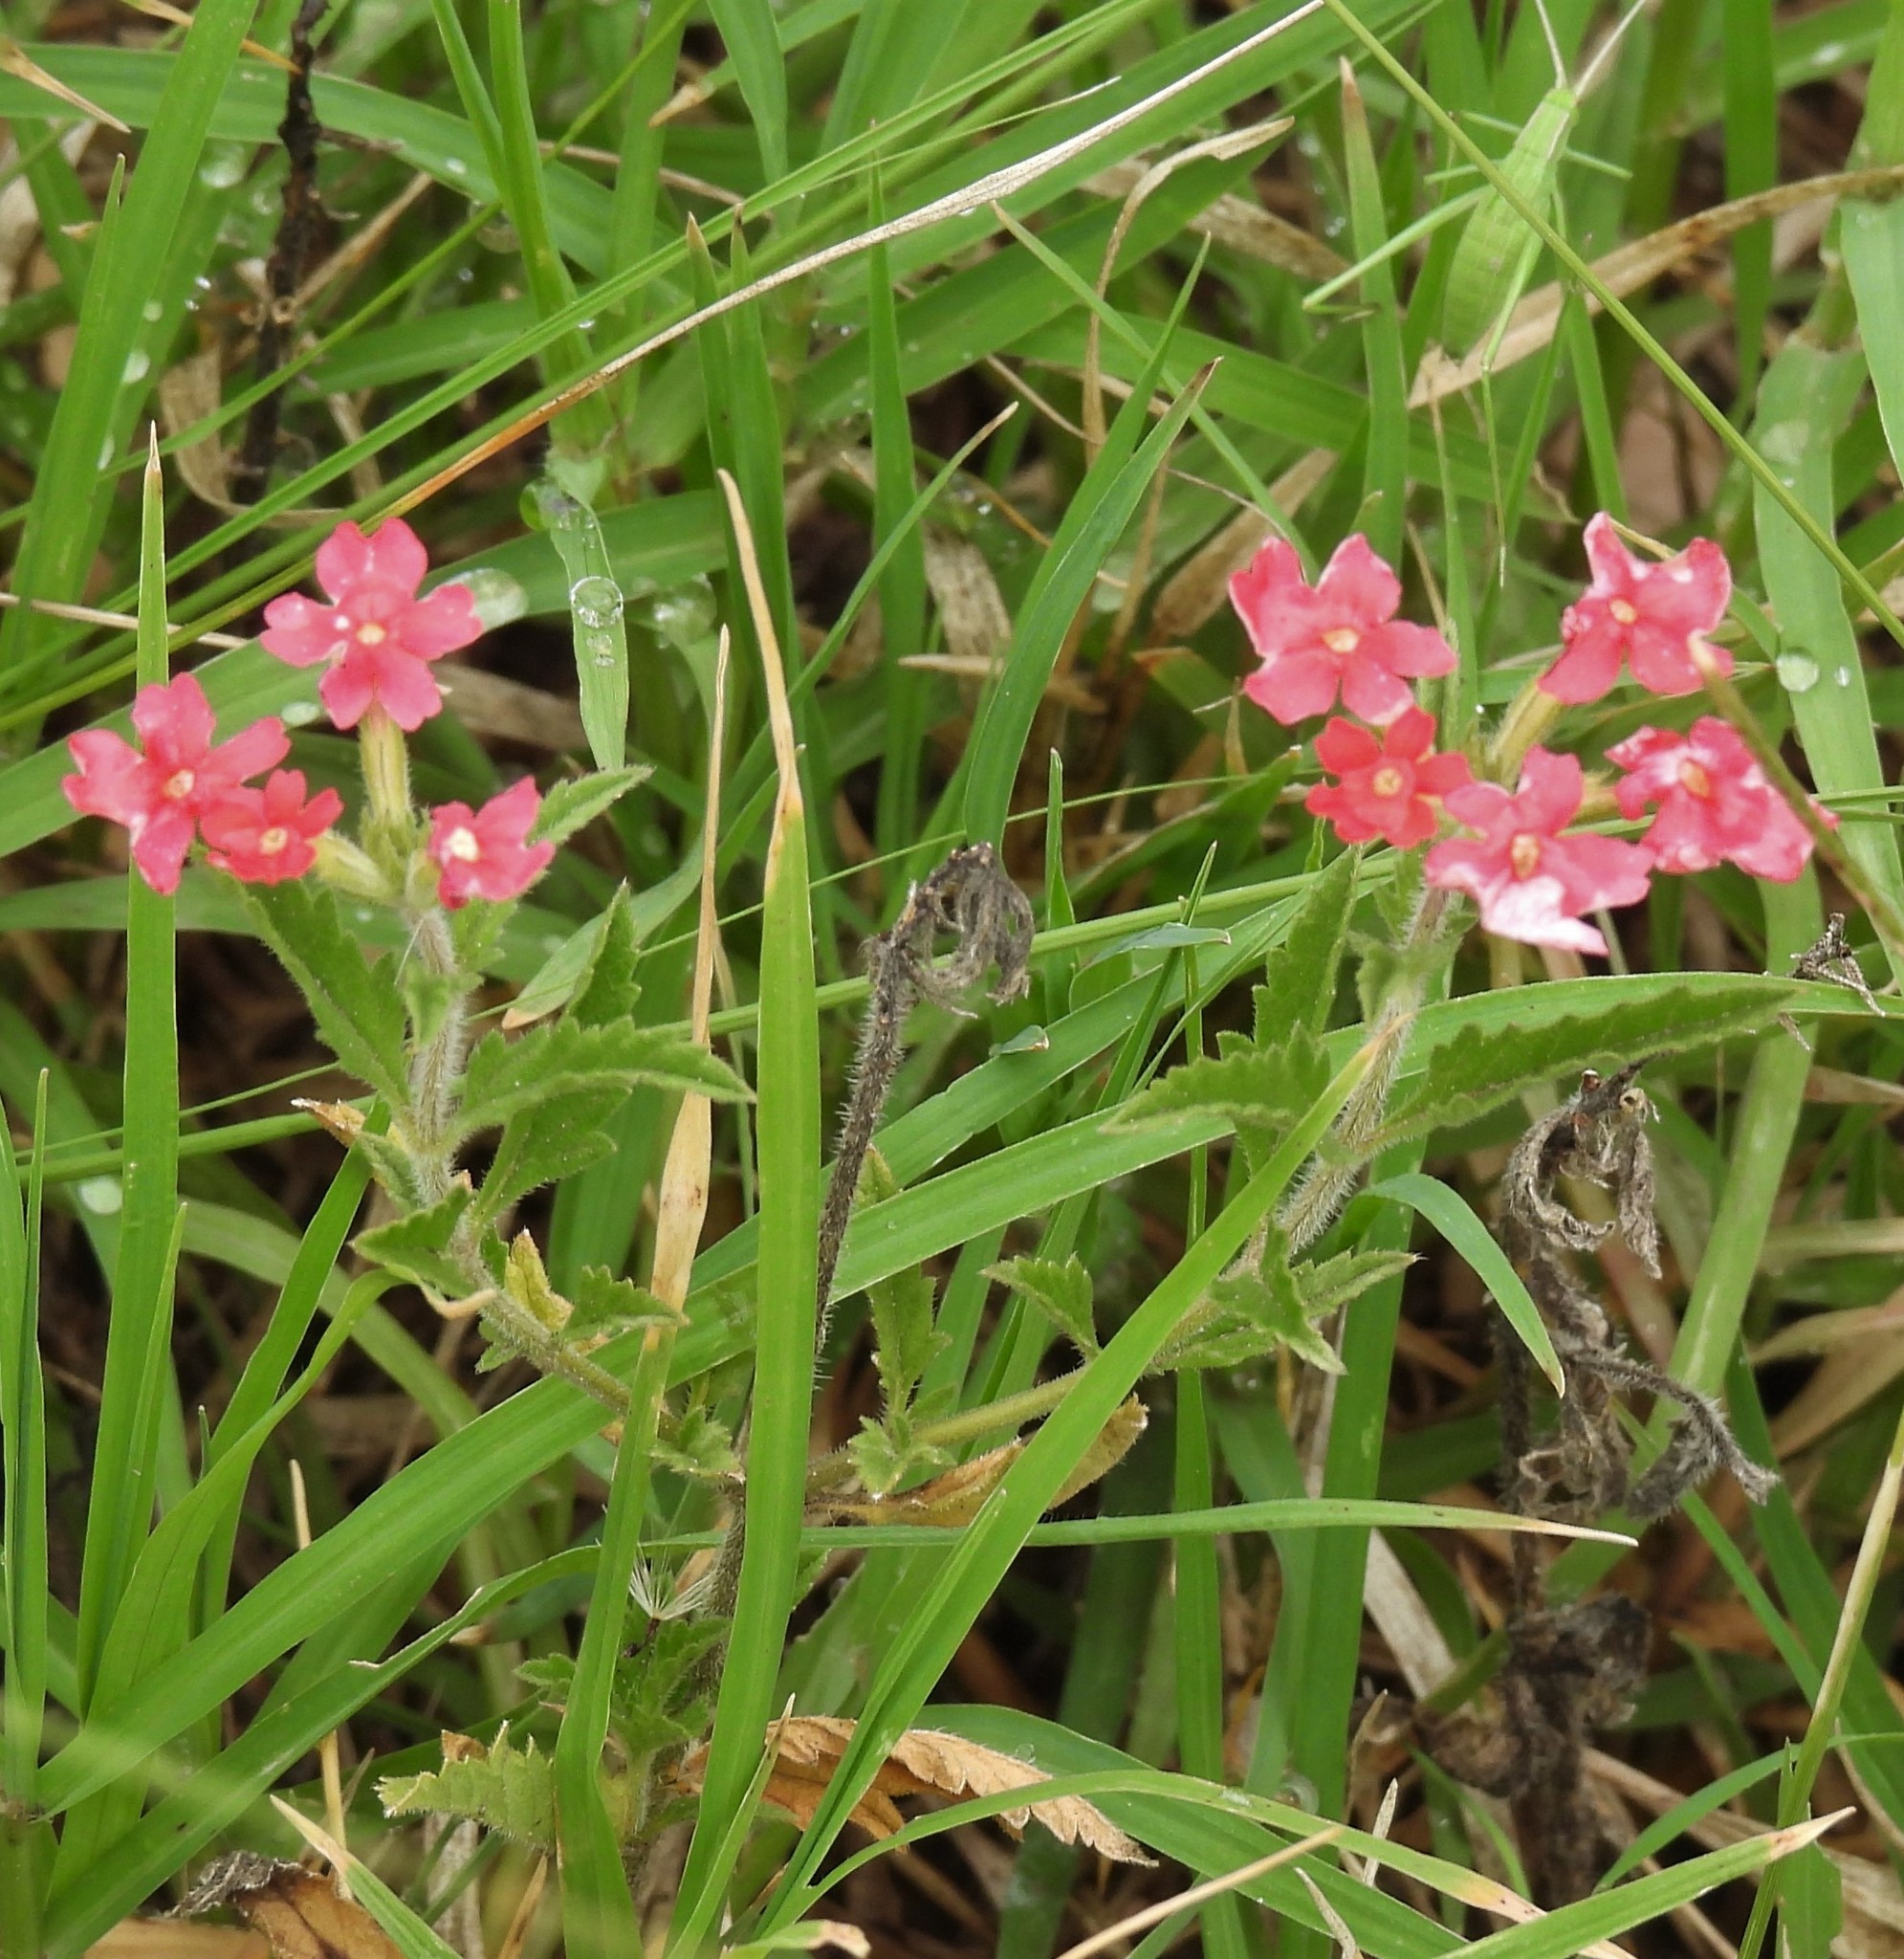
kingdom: Plantae
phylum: Tracheophyta
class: Magnoliopsida
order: Lamiales
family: Verbenaceae
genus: Verbena
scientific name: Verbena peruviana
